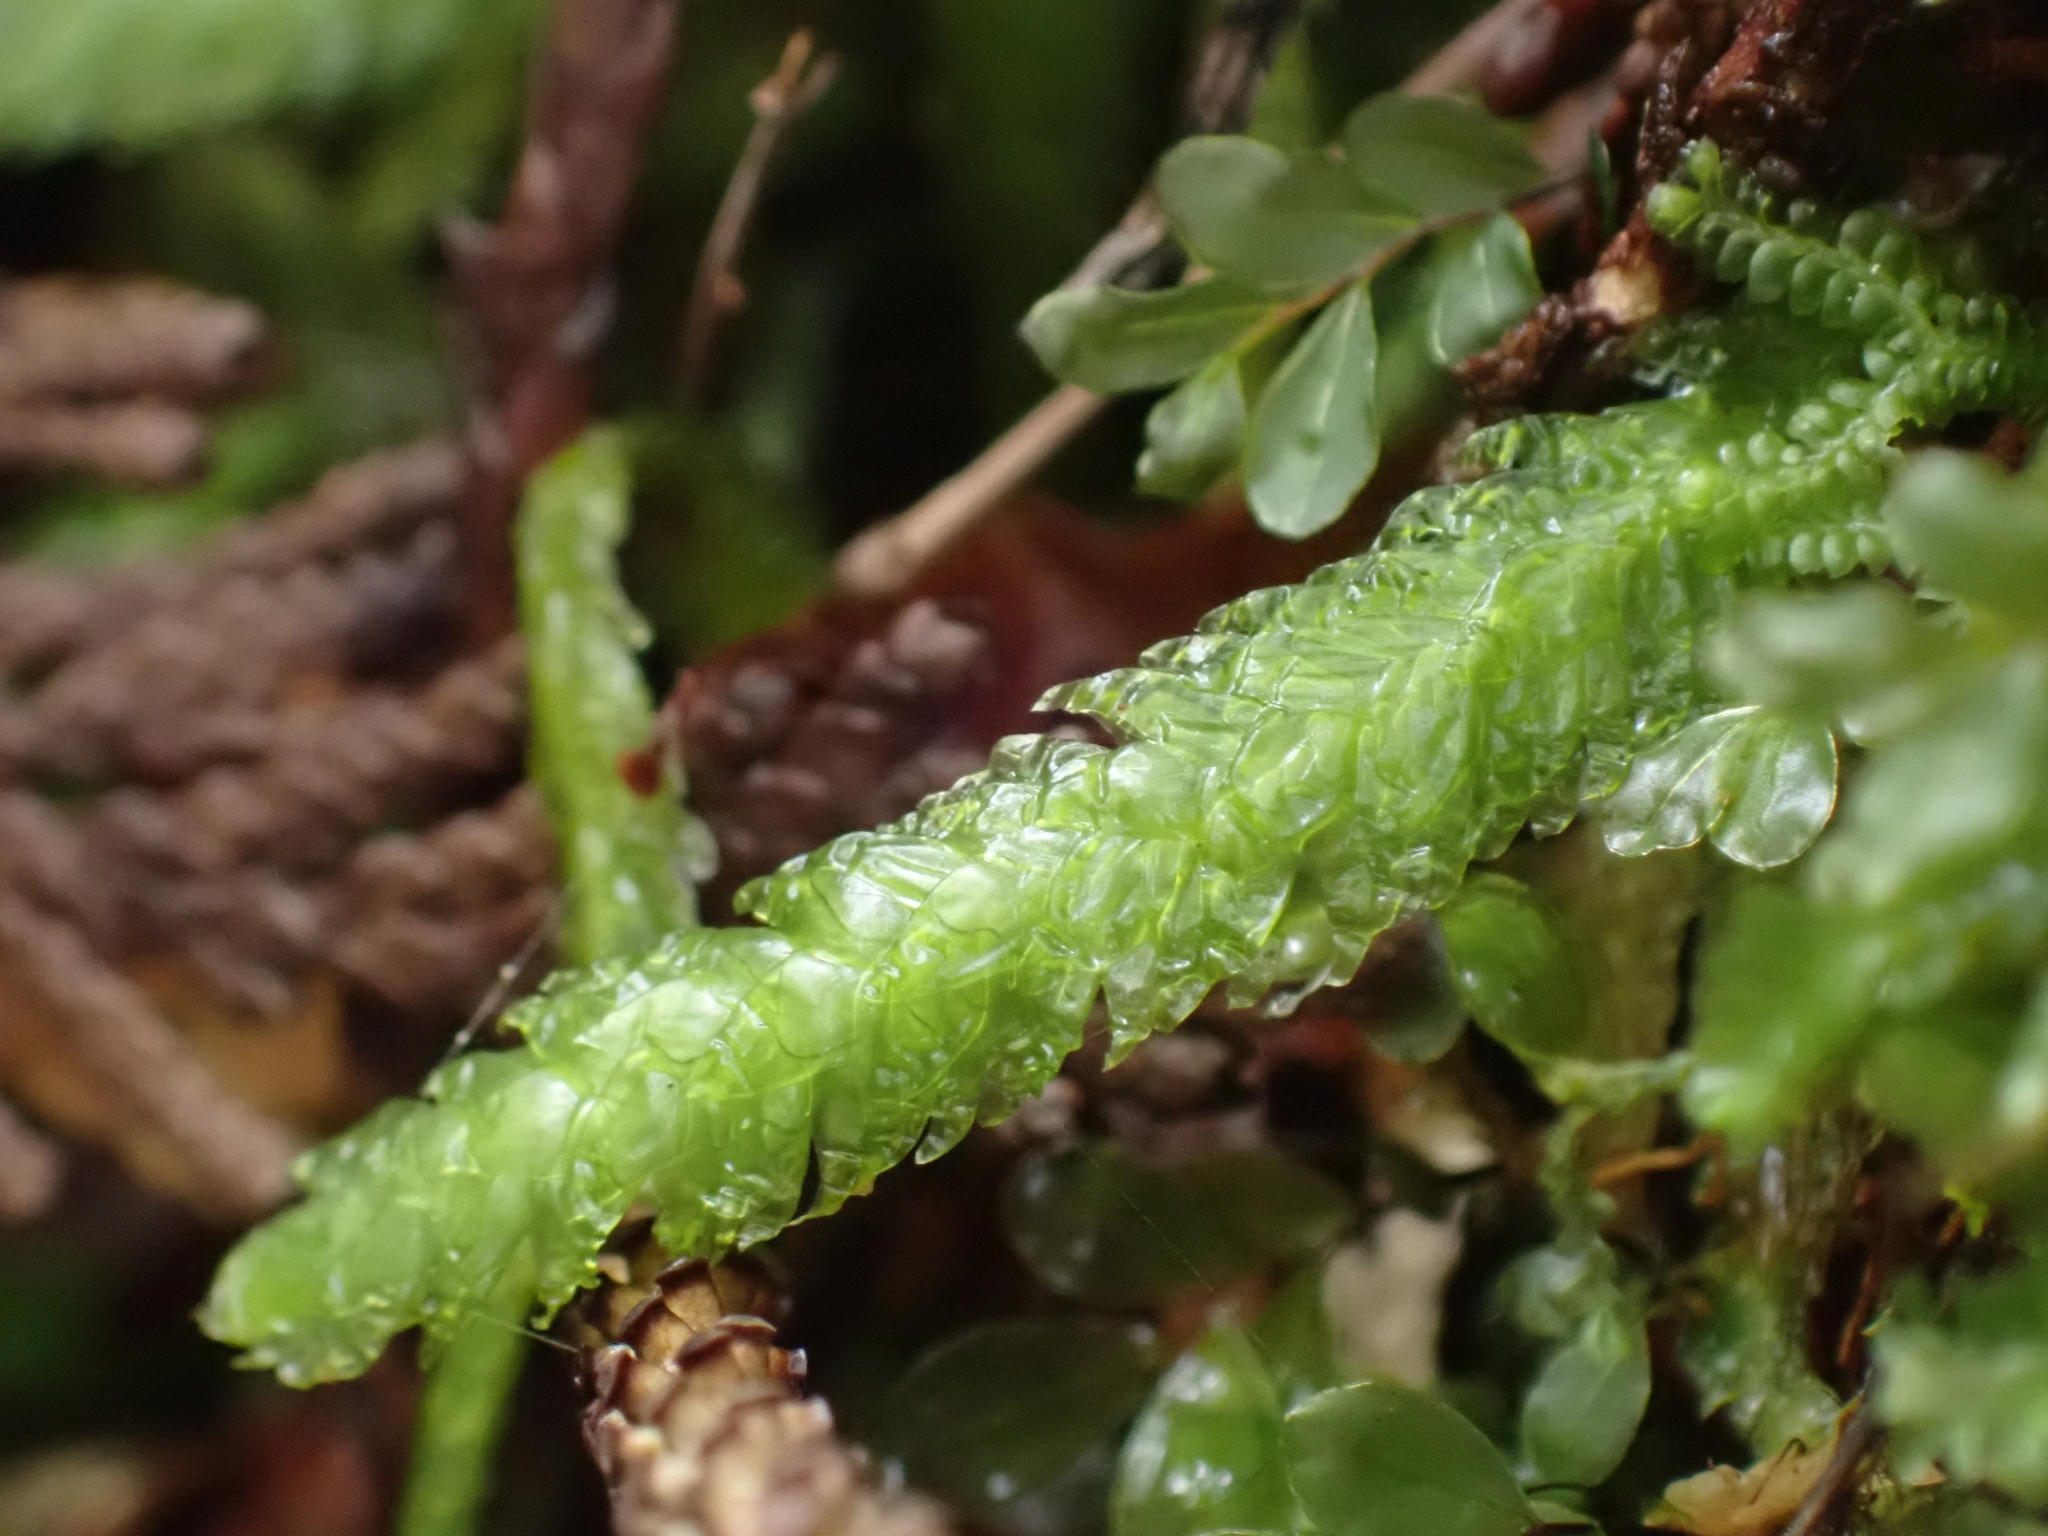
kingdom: Plantae
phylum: Bryophyta
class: Bryopsida
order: Hypnales
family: Plagiotheciaceae
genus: Plagiothecium
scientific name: Plagiothecium undulatum
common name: Waved silk-moss
